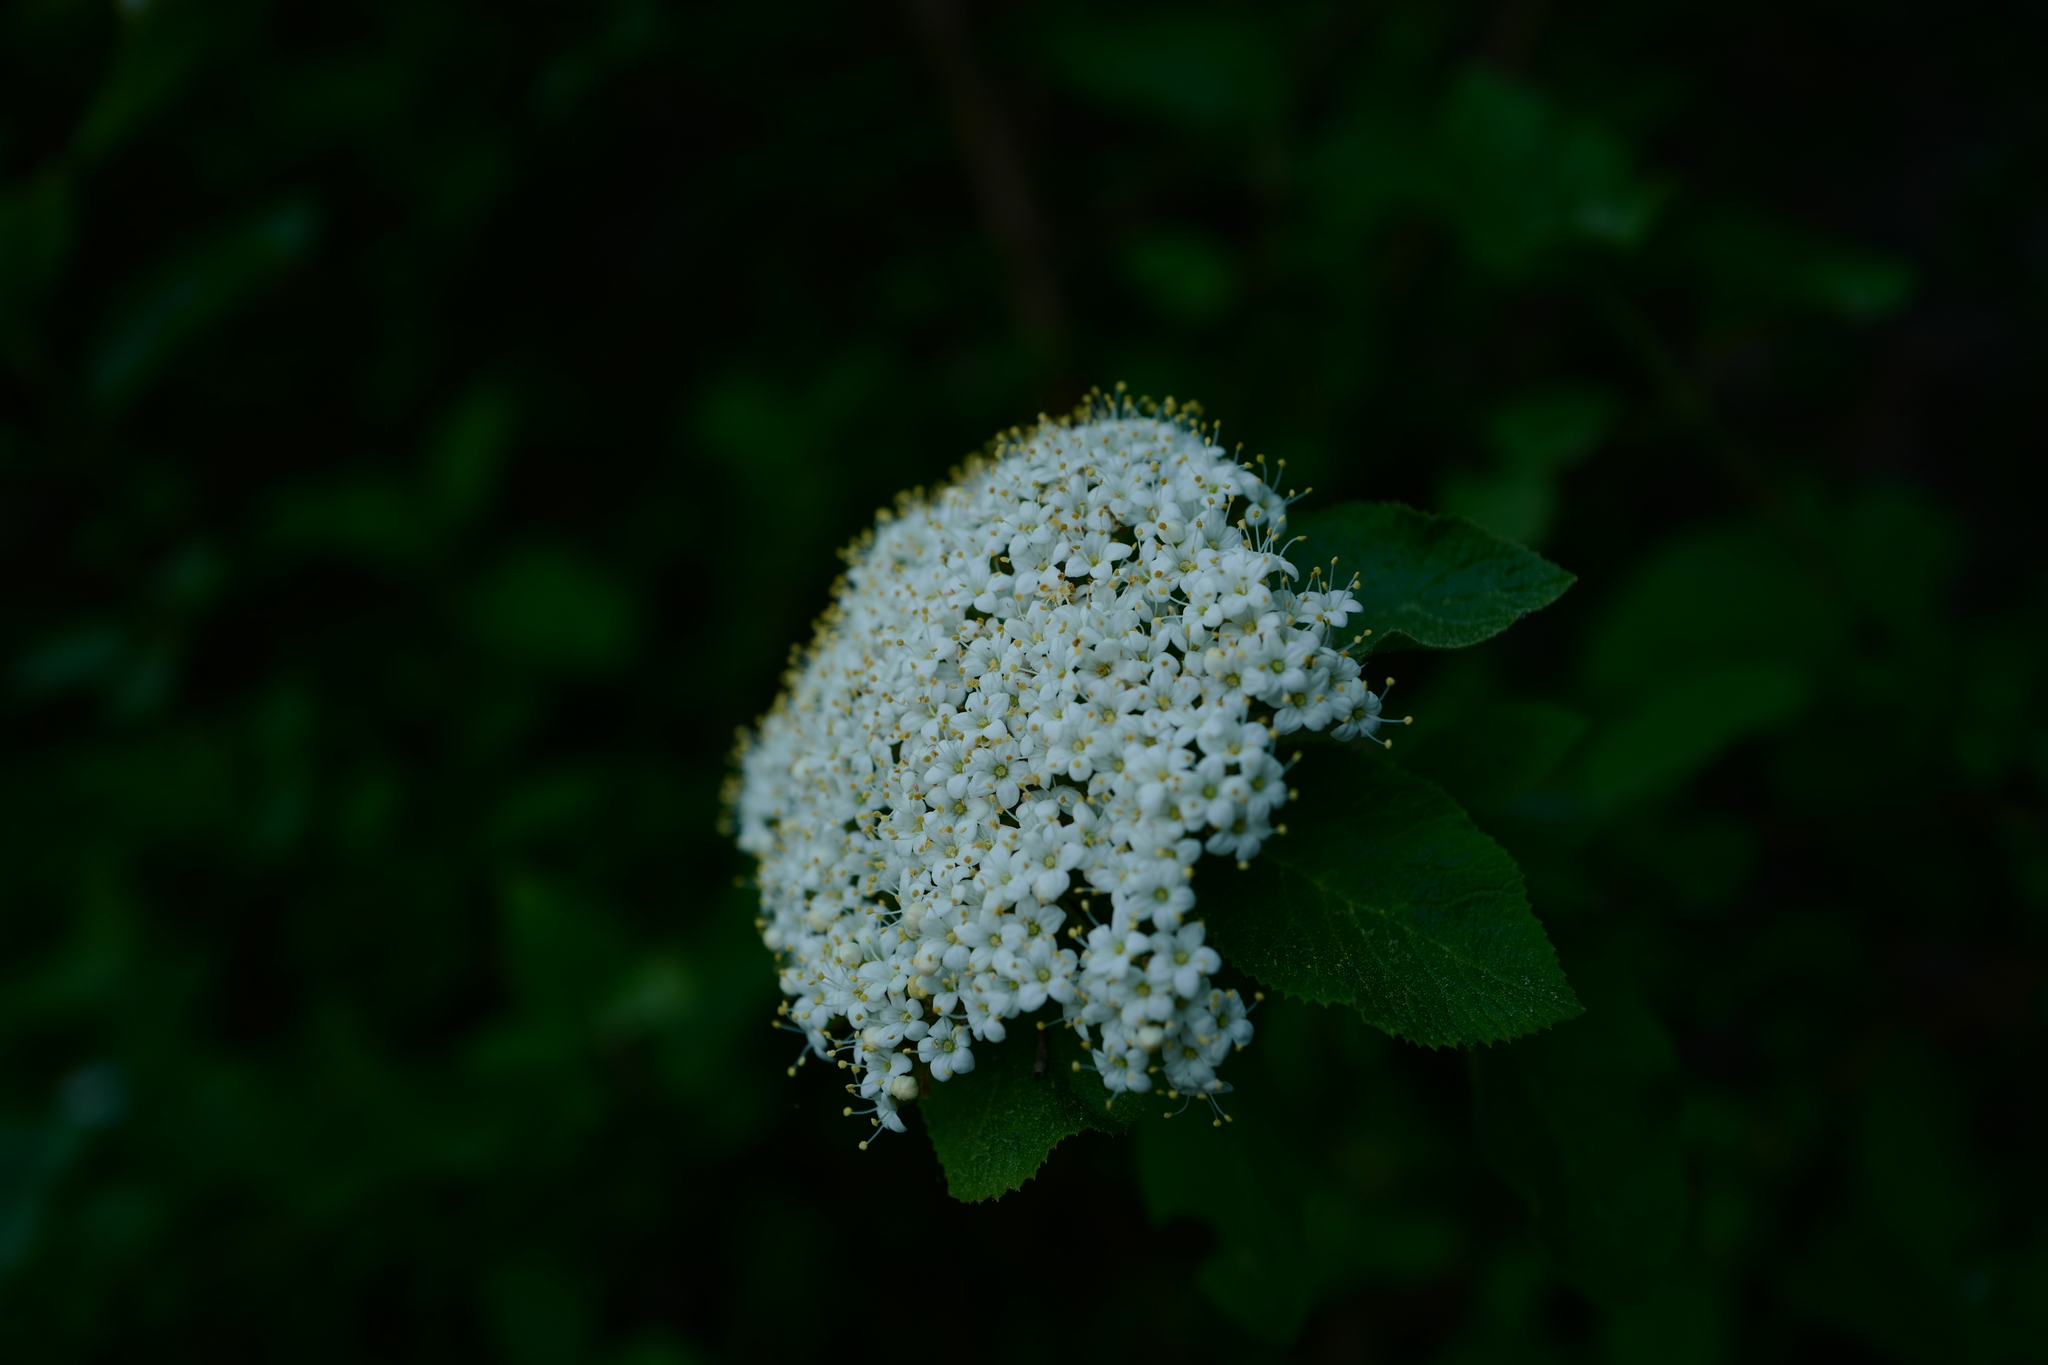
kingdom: Plantae
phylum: Tracheophyta
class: Magnoliopsida
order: Dipsacales
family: Viburnaceae
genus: Viburnum
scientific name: Viburnum lantana
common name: Wayfaring tree
